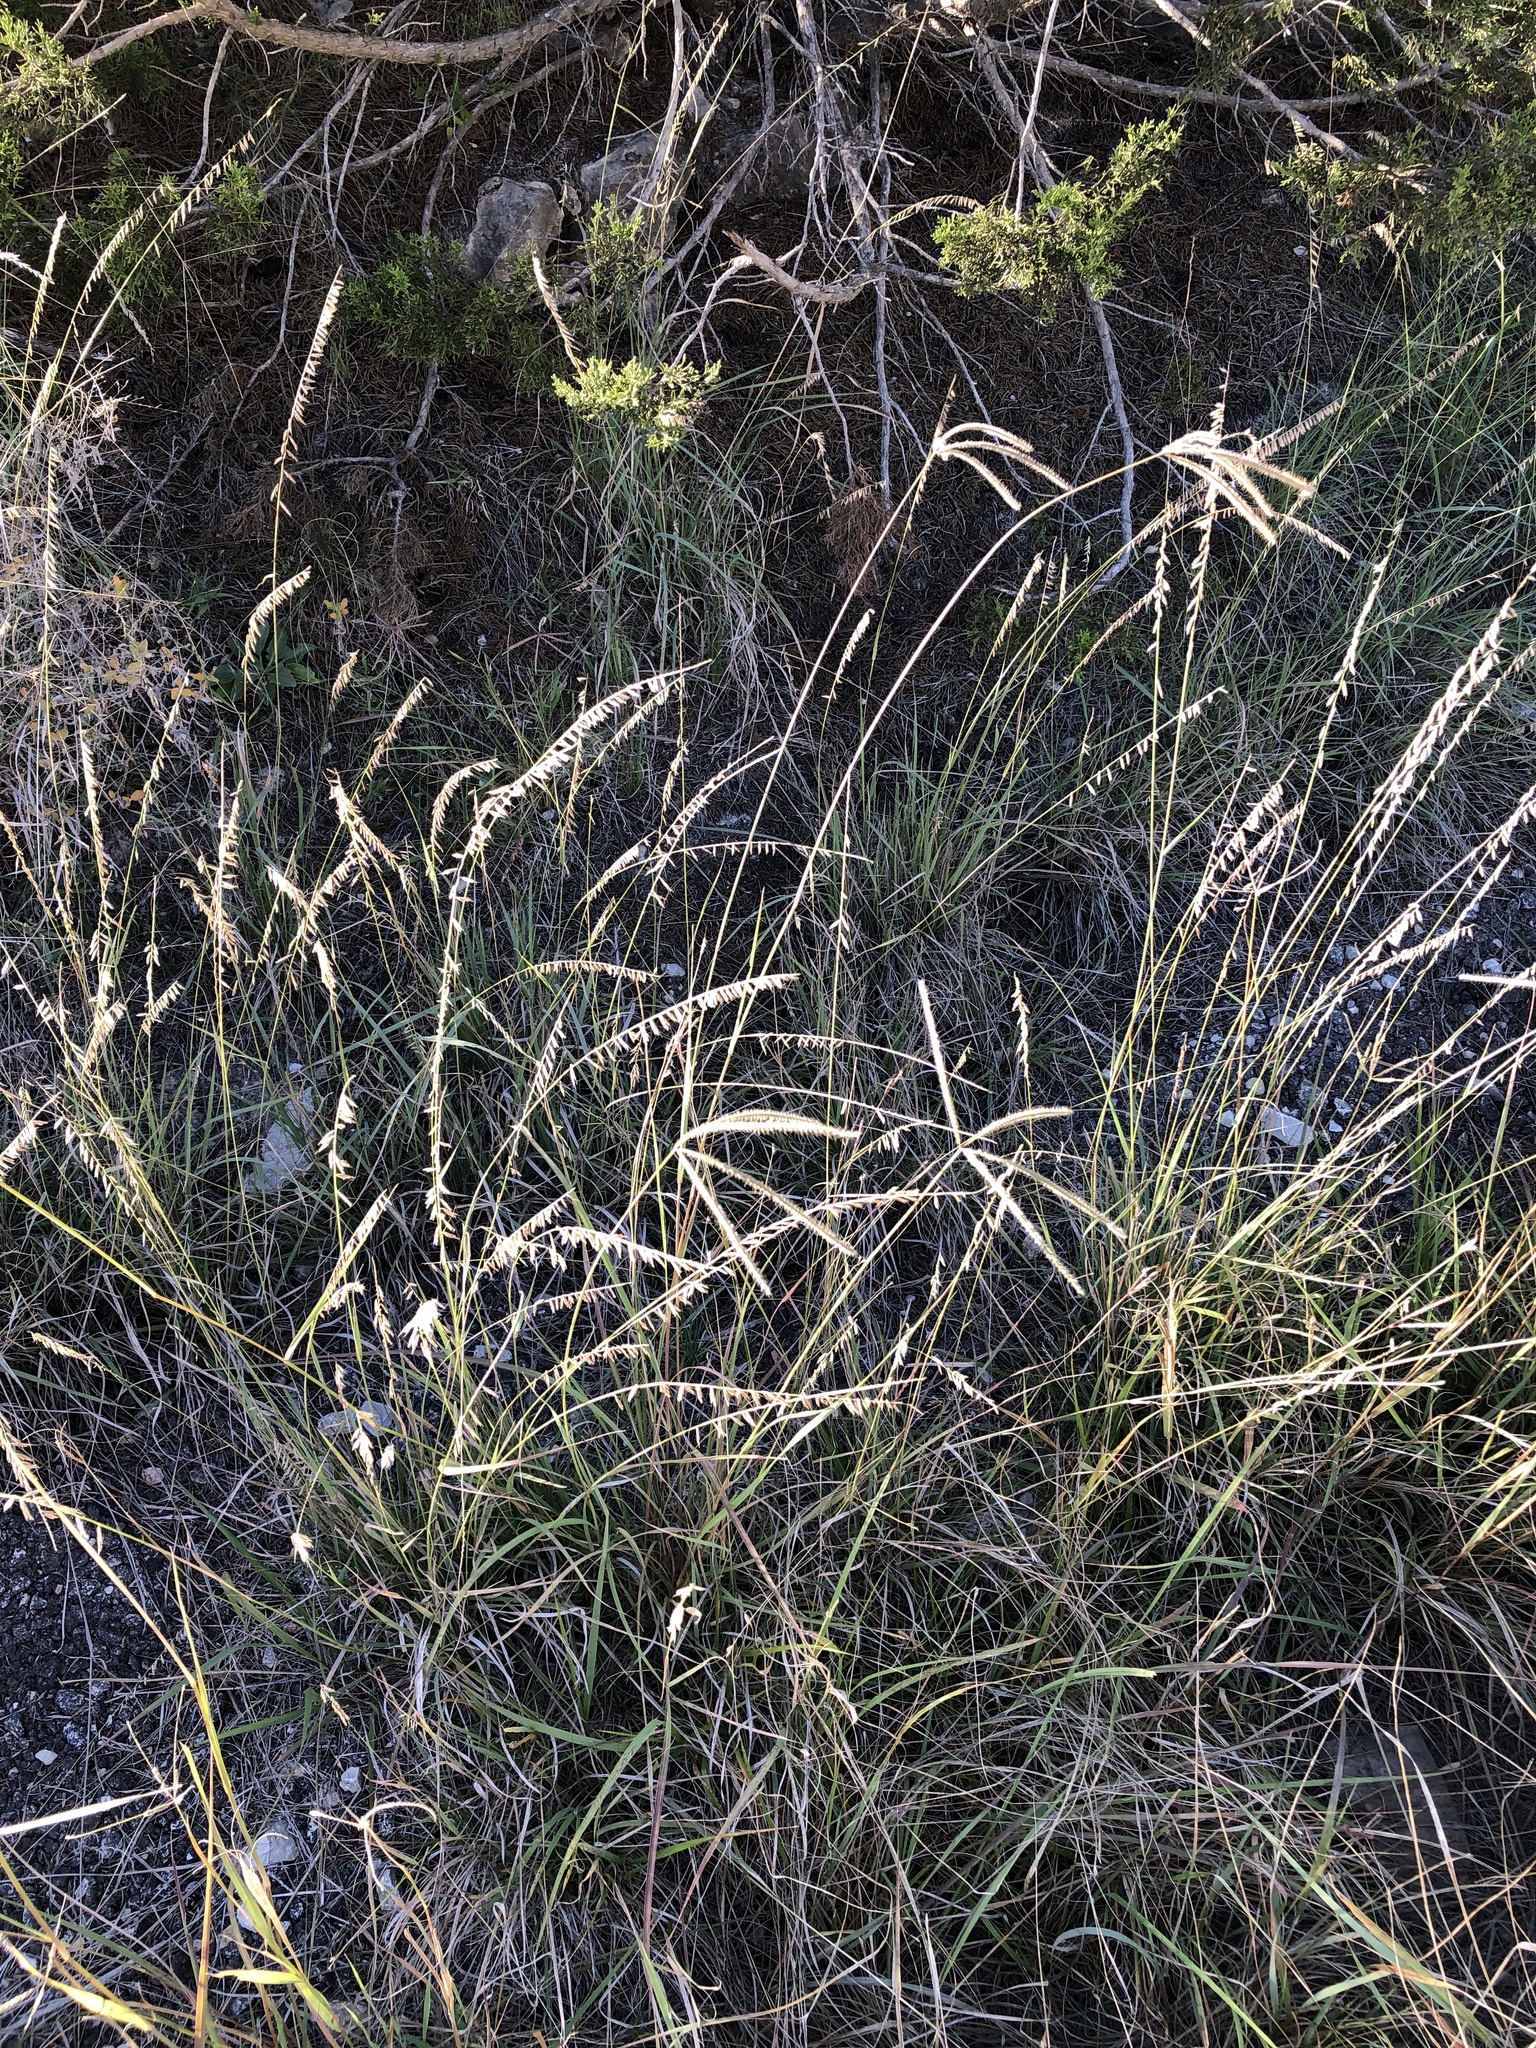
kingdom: Plantae
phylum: Tracheophyta
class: Liliopsida
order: Poales
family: Poaceae
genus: Stapfochloa
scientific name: Stapfochloa canterae
